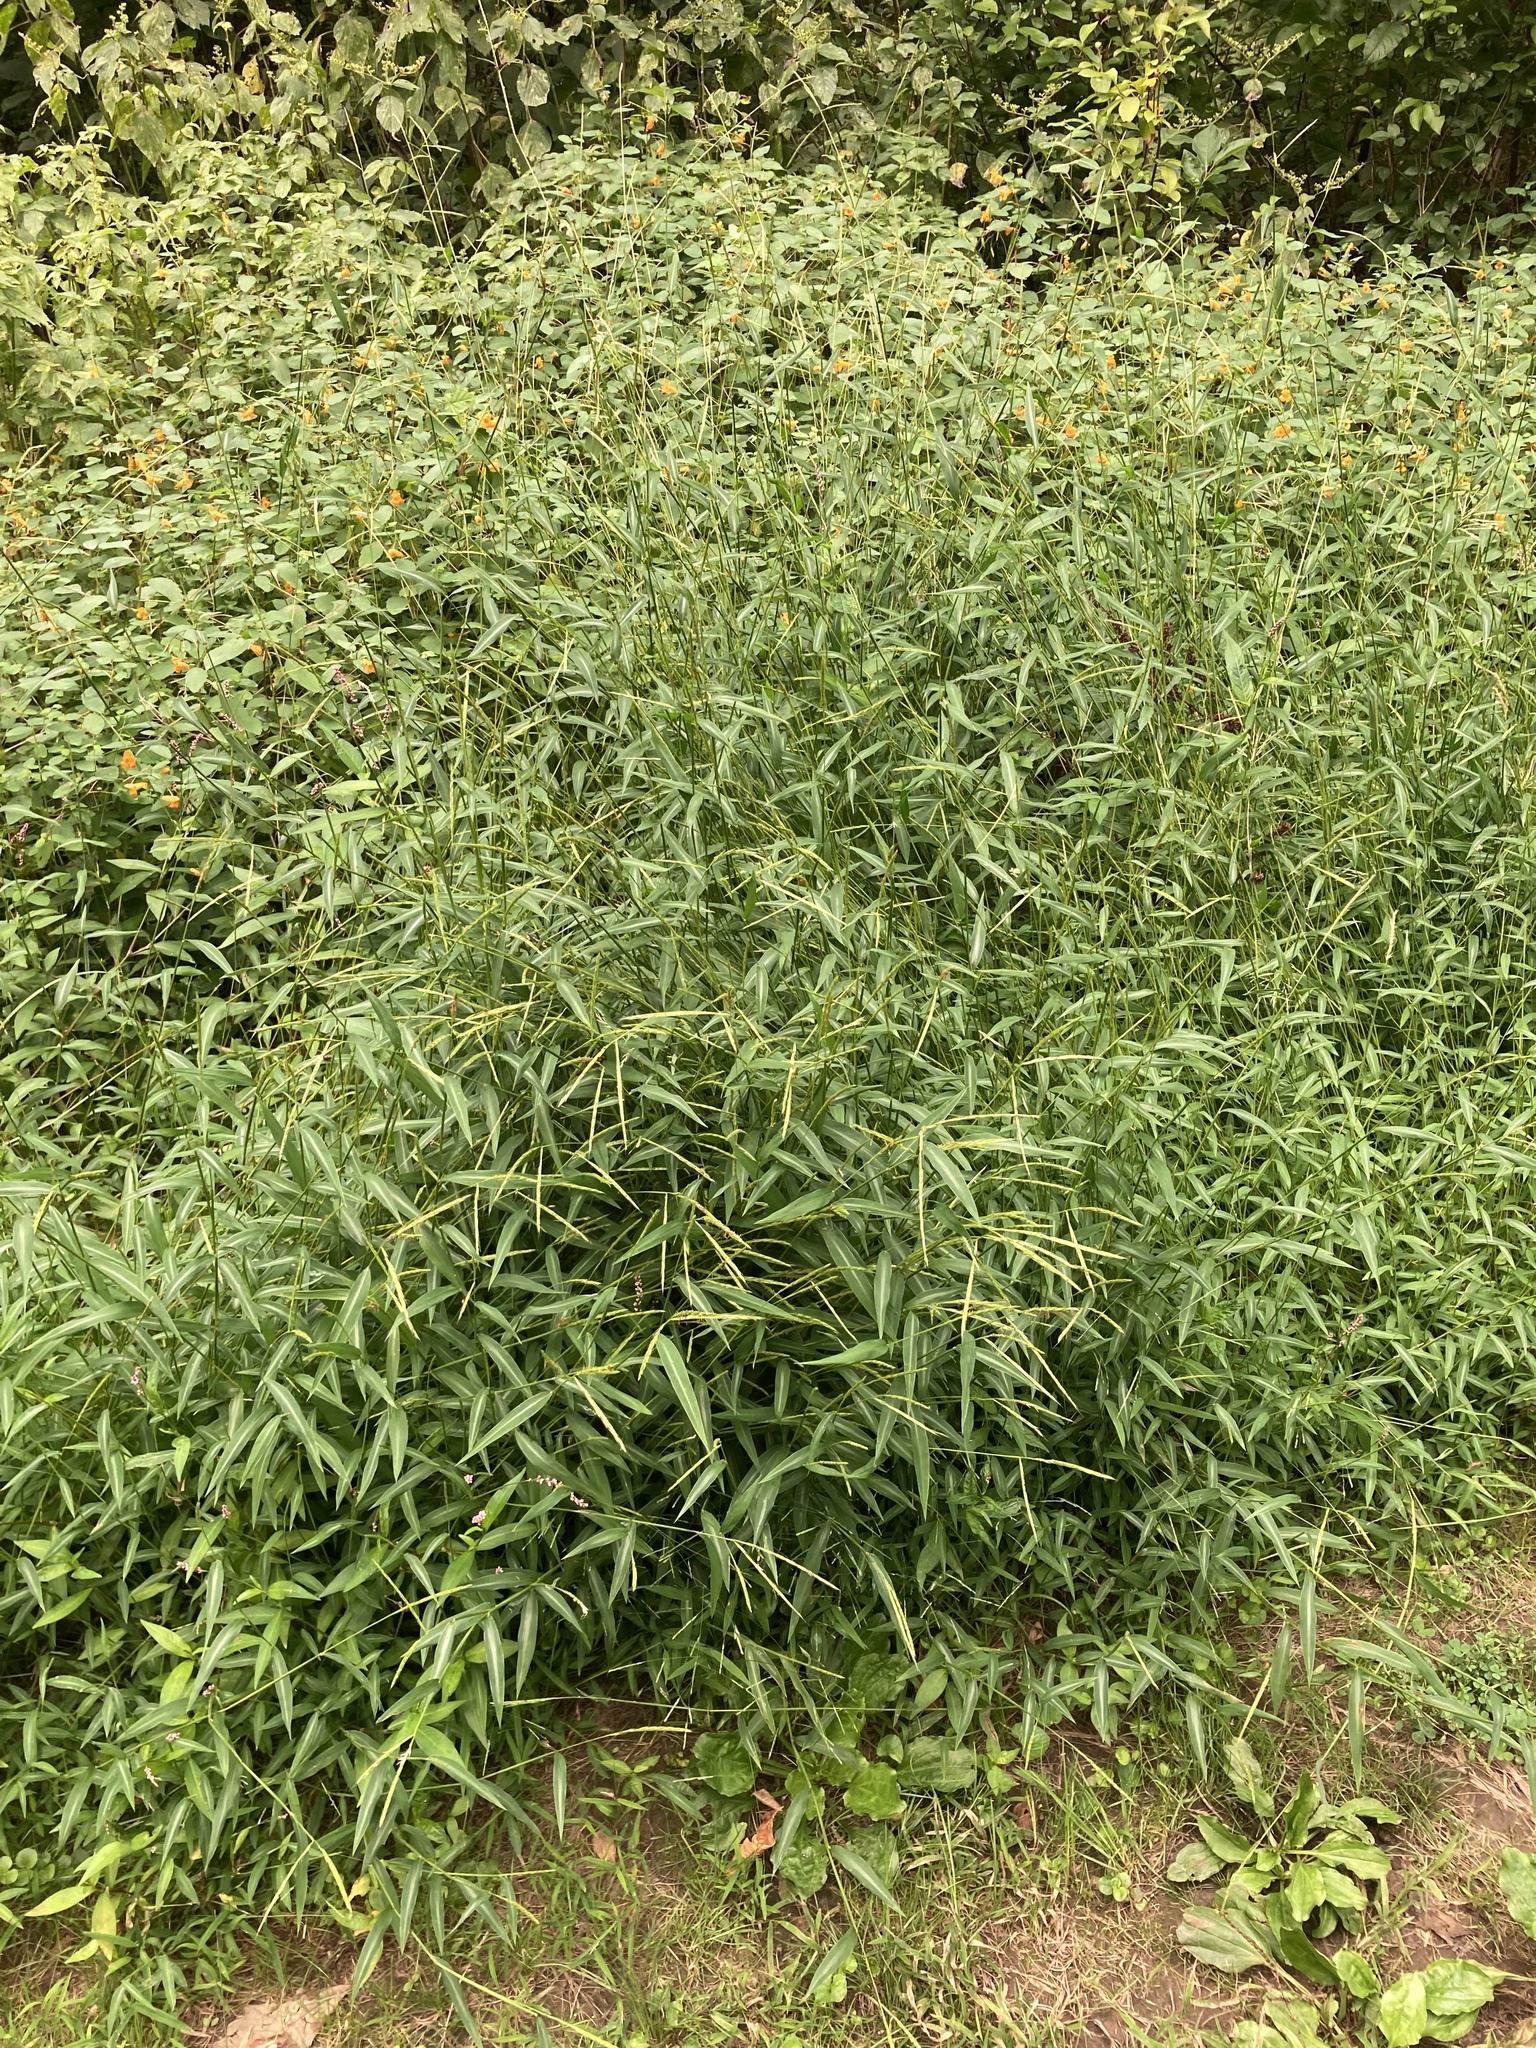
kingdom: Plantae
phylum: Tracheophyta
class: Liliopsida
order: Poales
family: Poaceae
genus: Microstegium
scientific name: Microstegium vimineum
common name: Japanese stiltgrass
